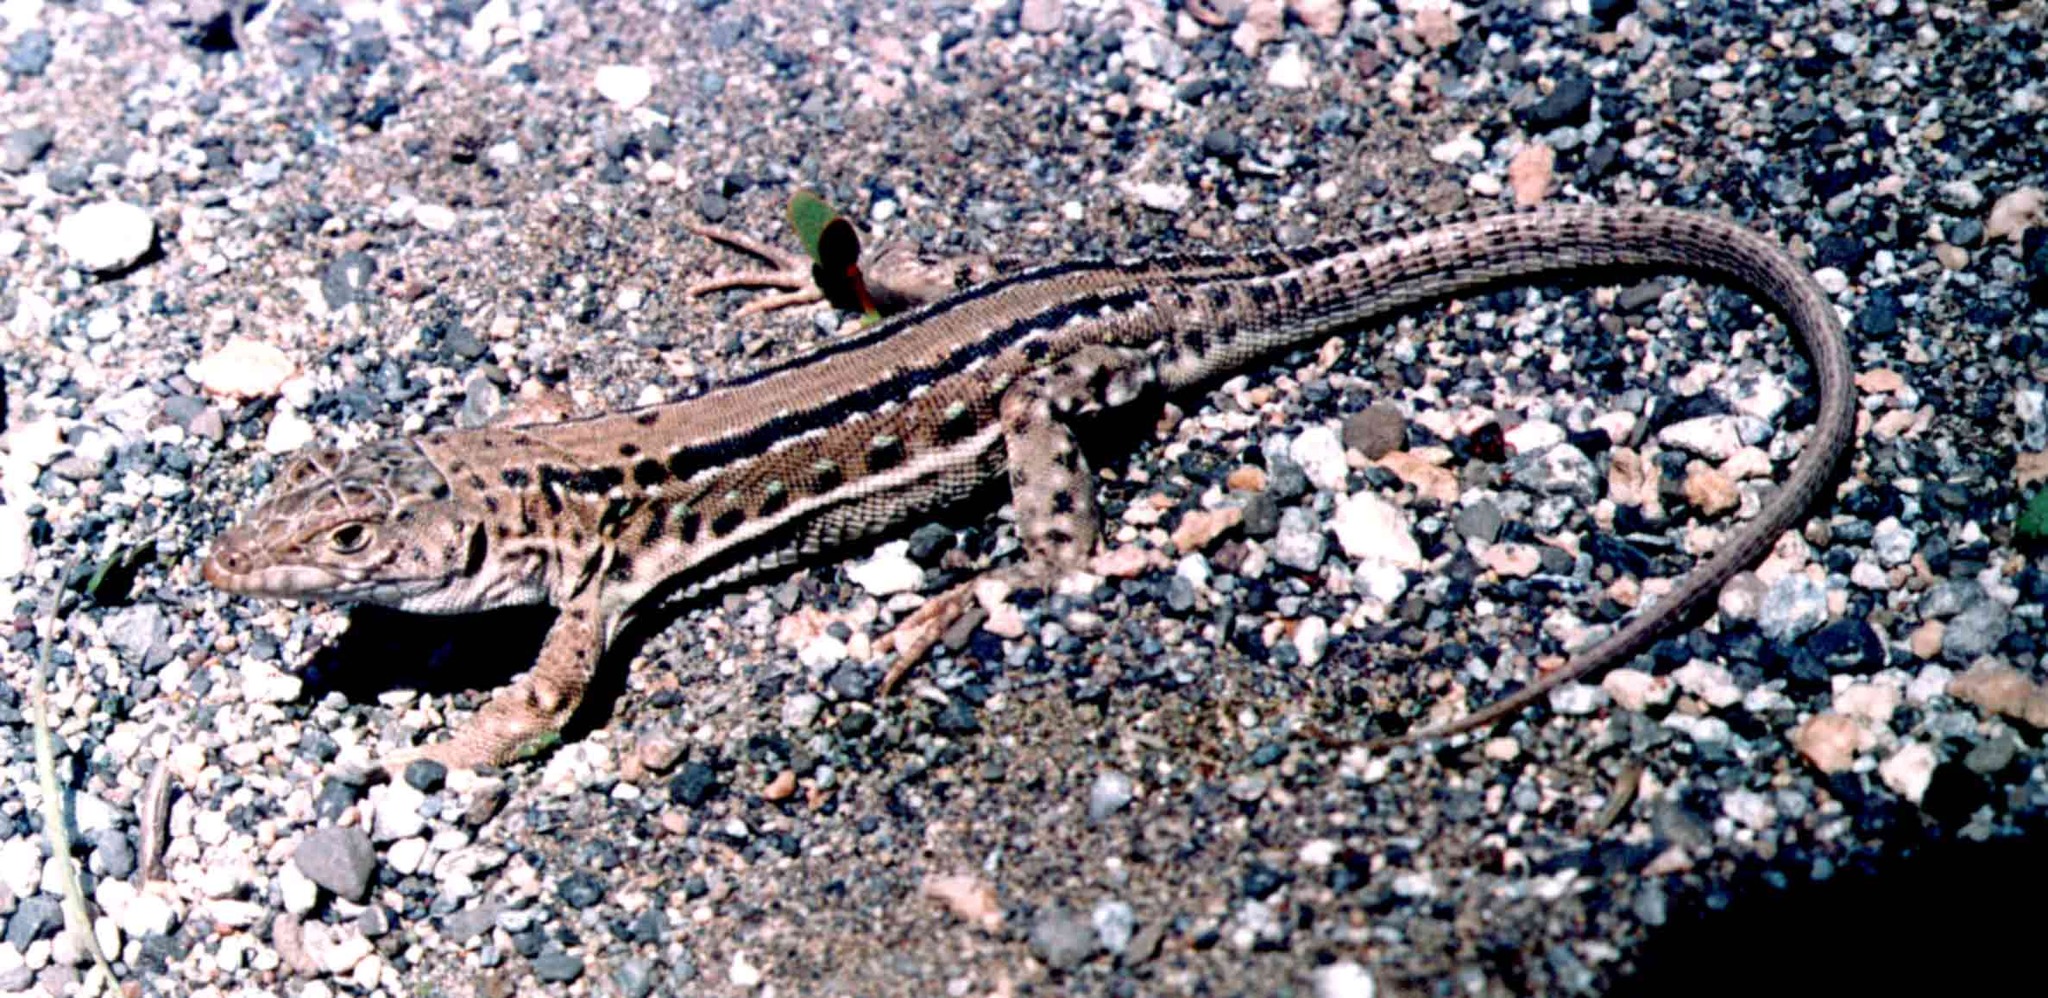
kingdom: Animalia
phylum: Chordata
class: Squamata
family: Lacertidae
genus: Eremias
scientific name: Eremias strauchi
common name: Strauch's racerunner
